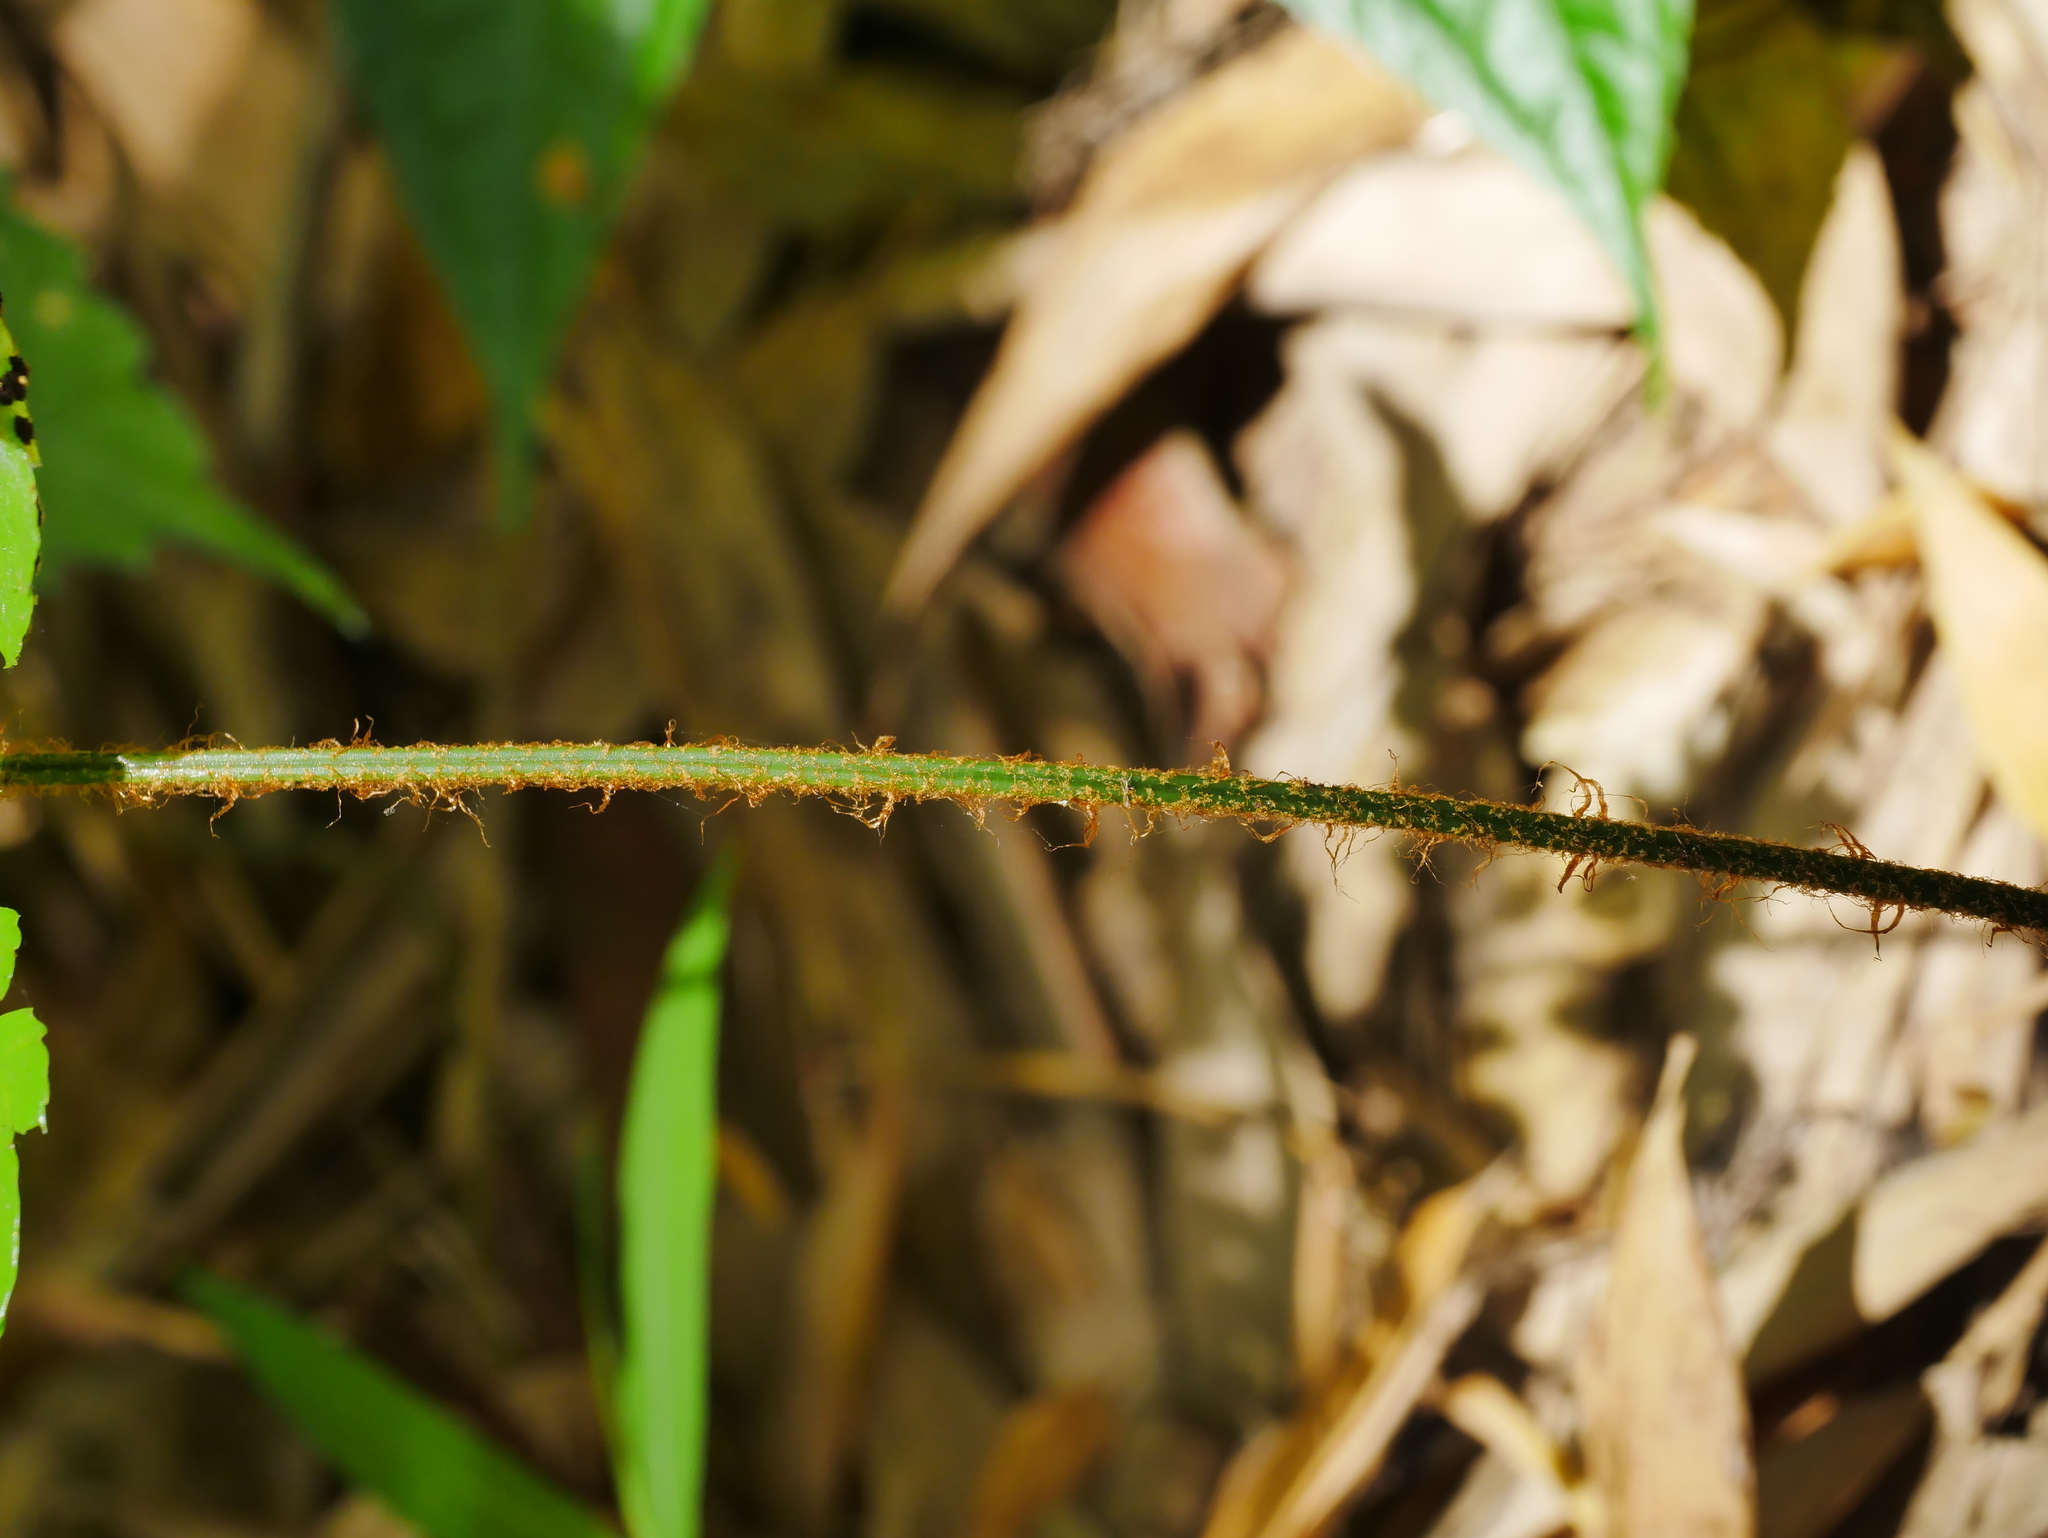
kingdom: Plantae
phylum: Tracheophyta
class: Polypodiopsida
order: Polypodiales
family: Dryopteridaceae
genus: Polystichum
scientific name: Polystichum biaristatum
